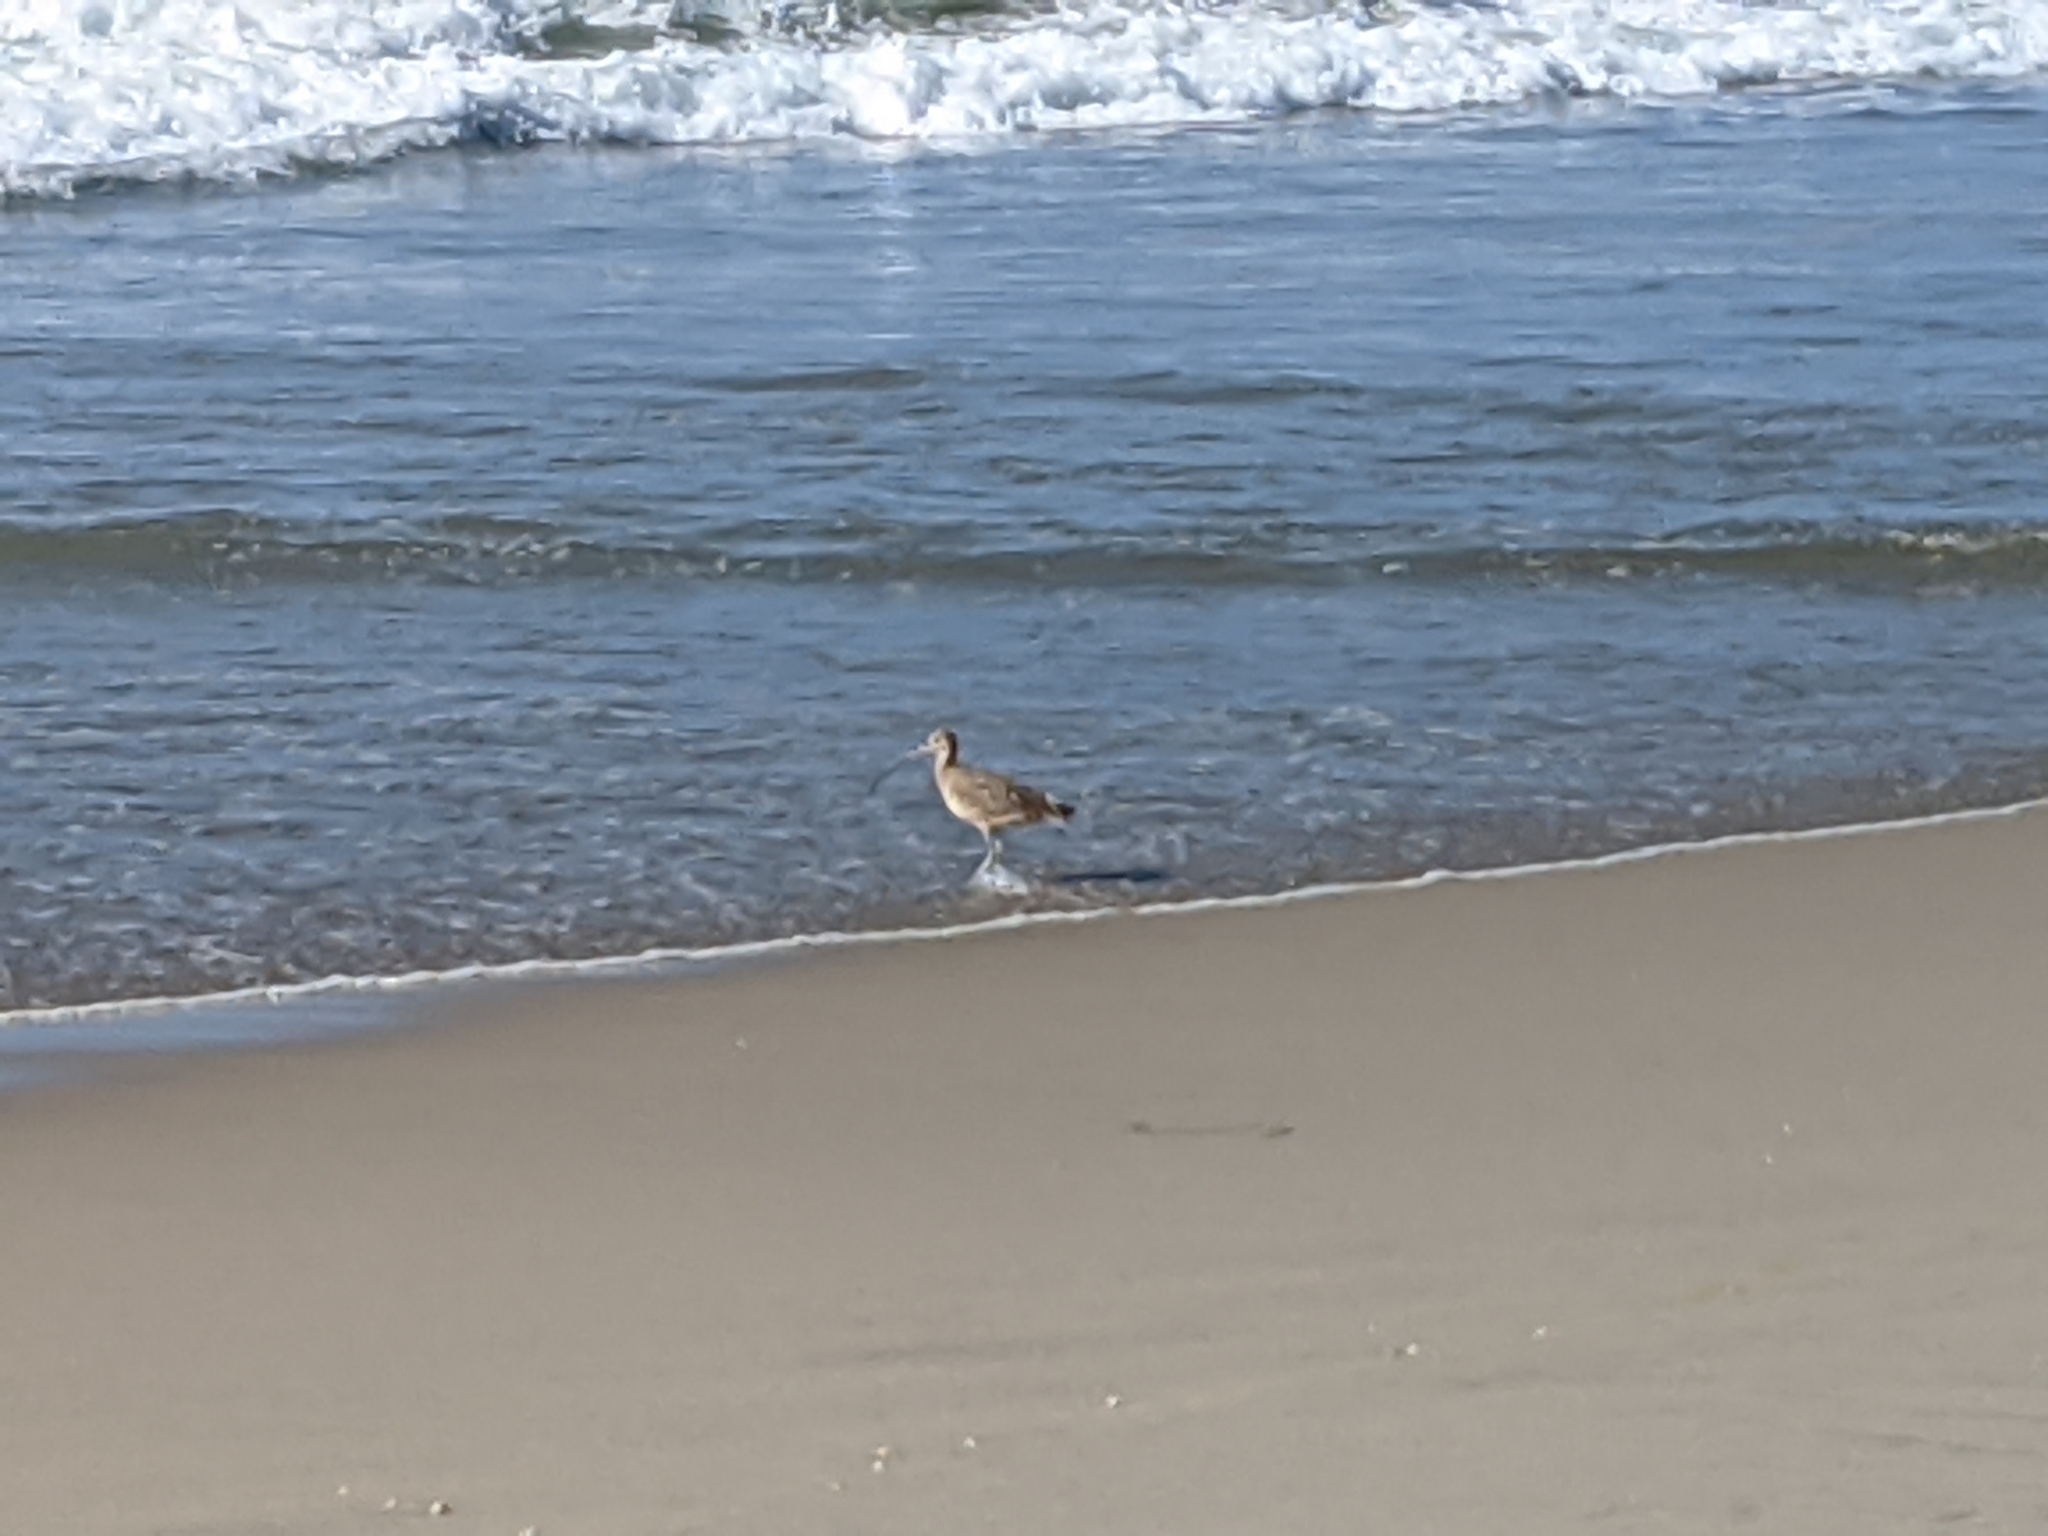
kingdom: Animalia
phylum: Chordata
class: Aves
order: Charadriiformes
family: Scolopacidae
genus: Numenius
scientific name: Numenius
